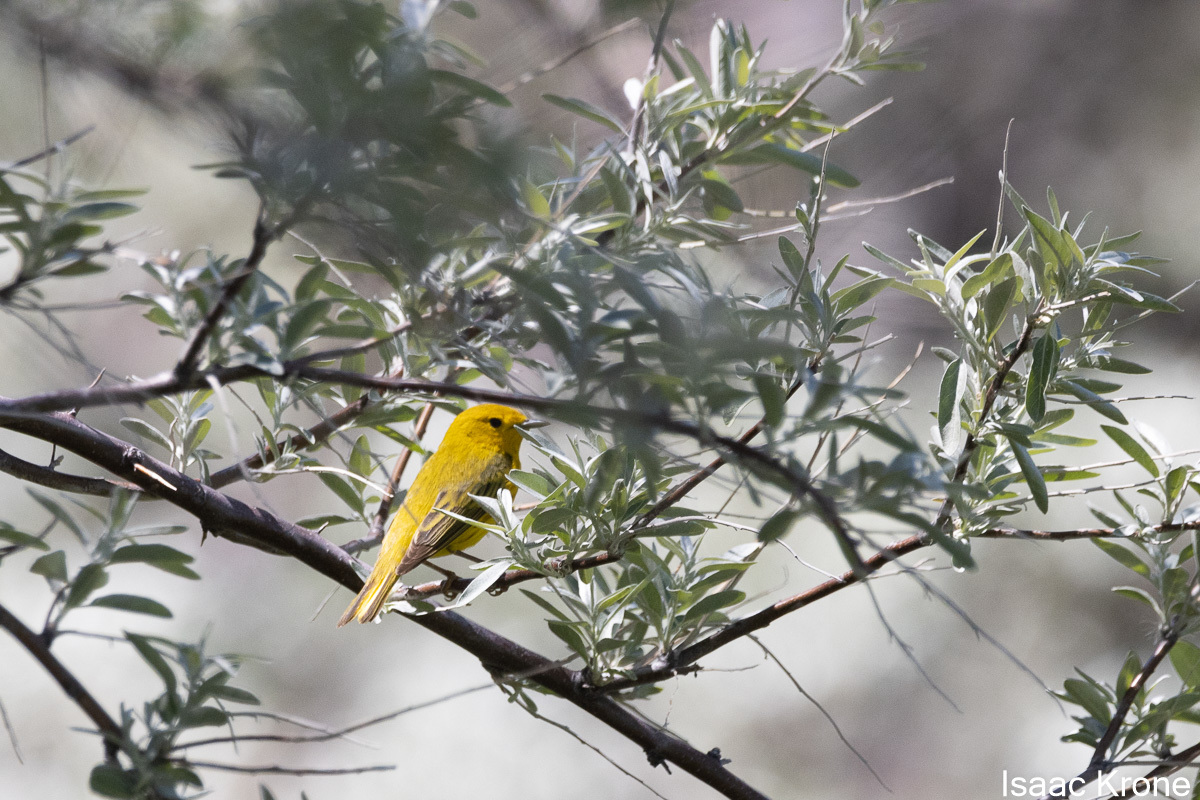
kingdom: Animalia
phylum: Chordata
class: Aves
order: Passeriformes
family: Parulidae
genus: Setophaga
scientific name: Setophaga petechia
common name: Yellow warbler
